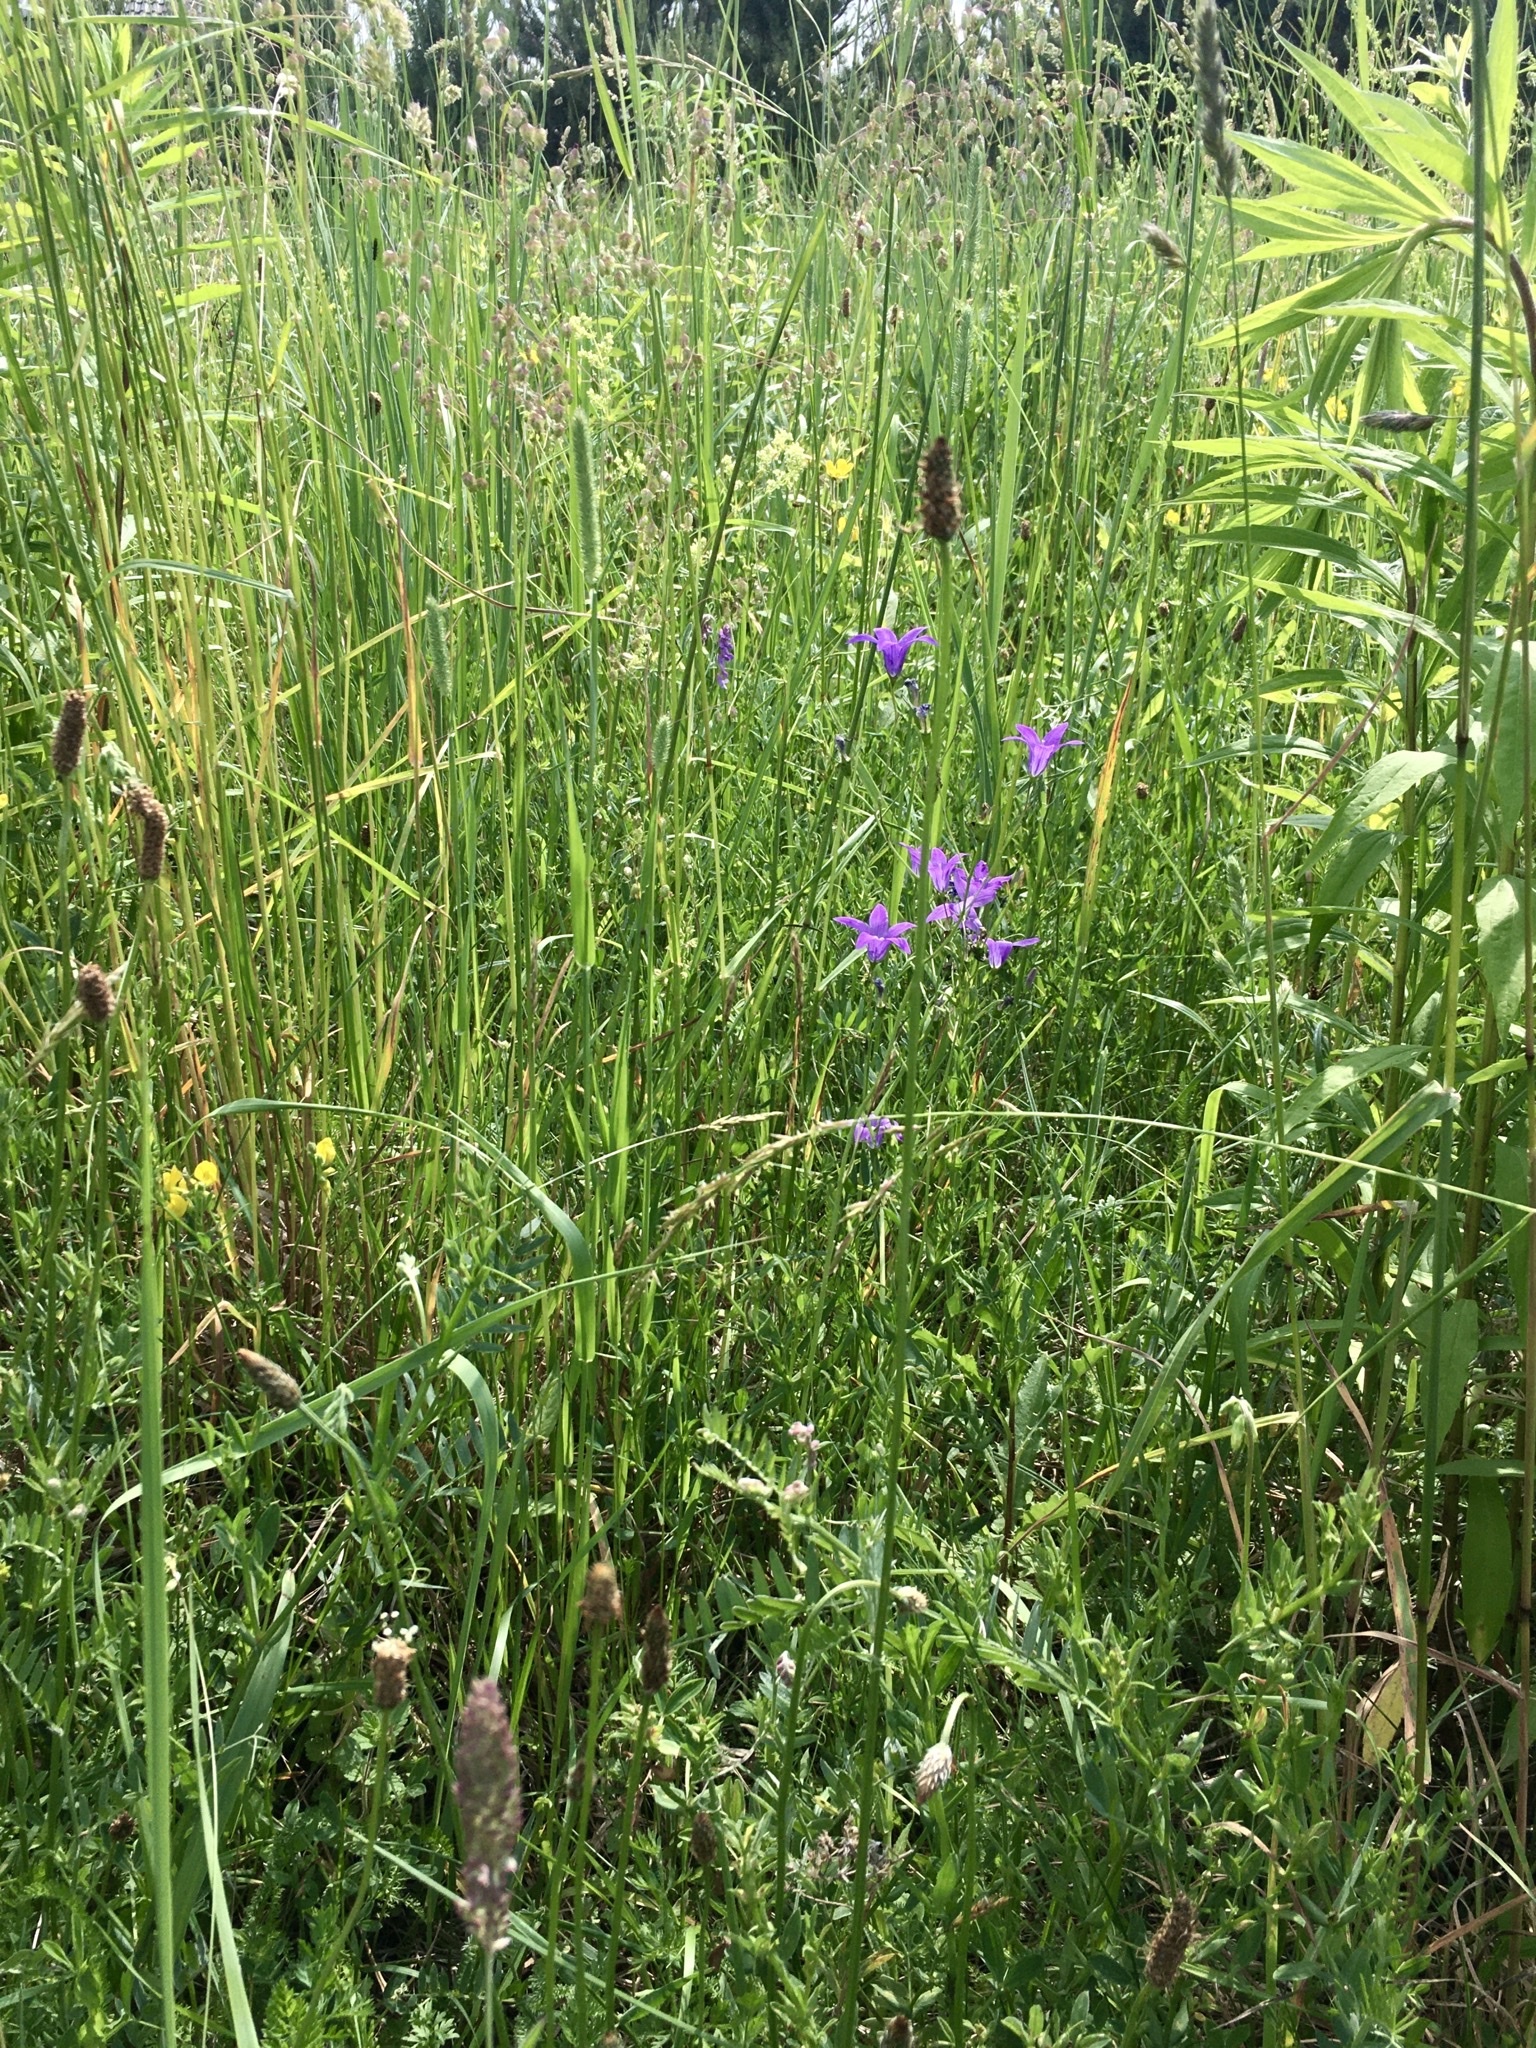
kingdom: Plantae
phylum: Tracheophyta
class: Magnoliopsida
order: Asterales
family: Campanulaceae
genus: Campanula
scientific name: Campanula patula
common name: Spreading bellflower
